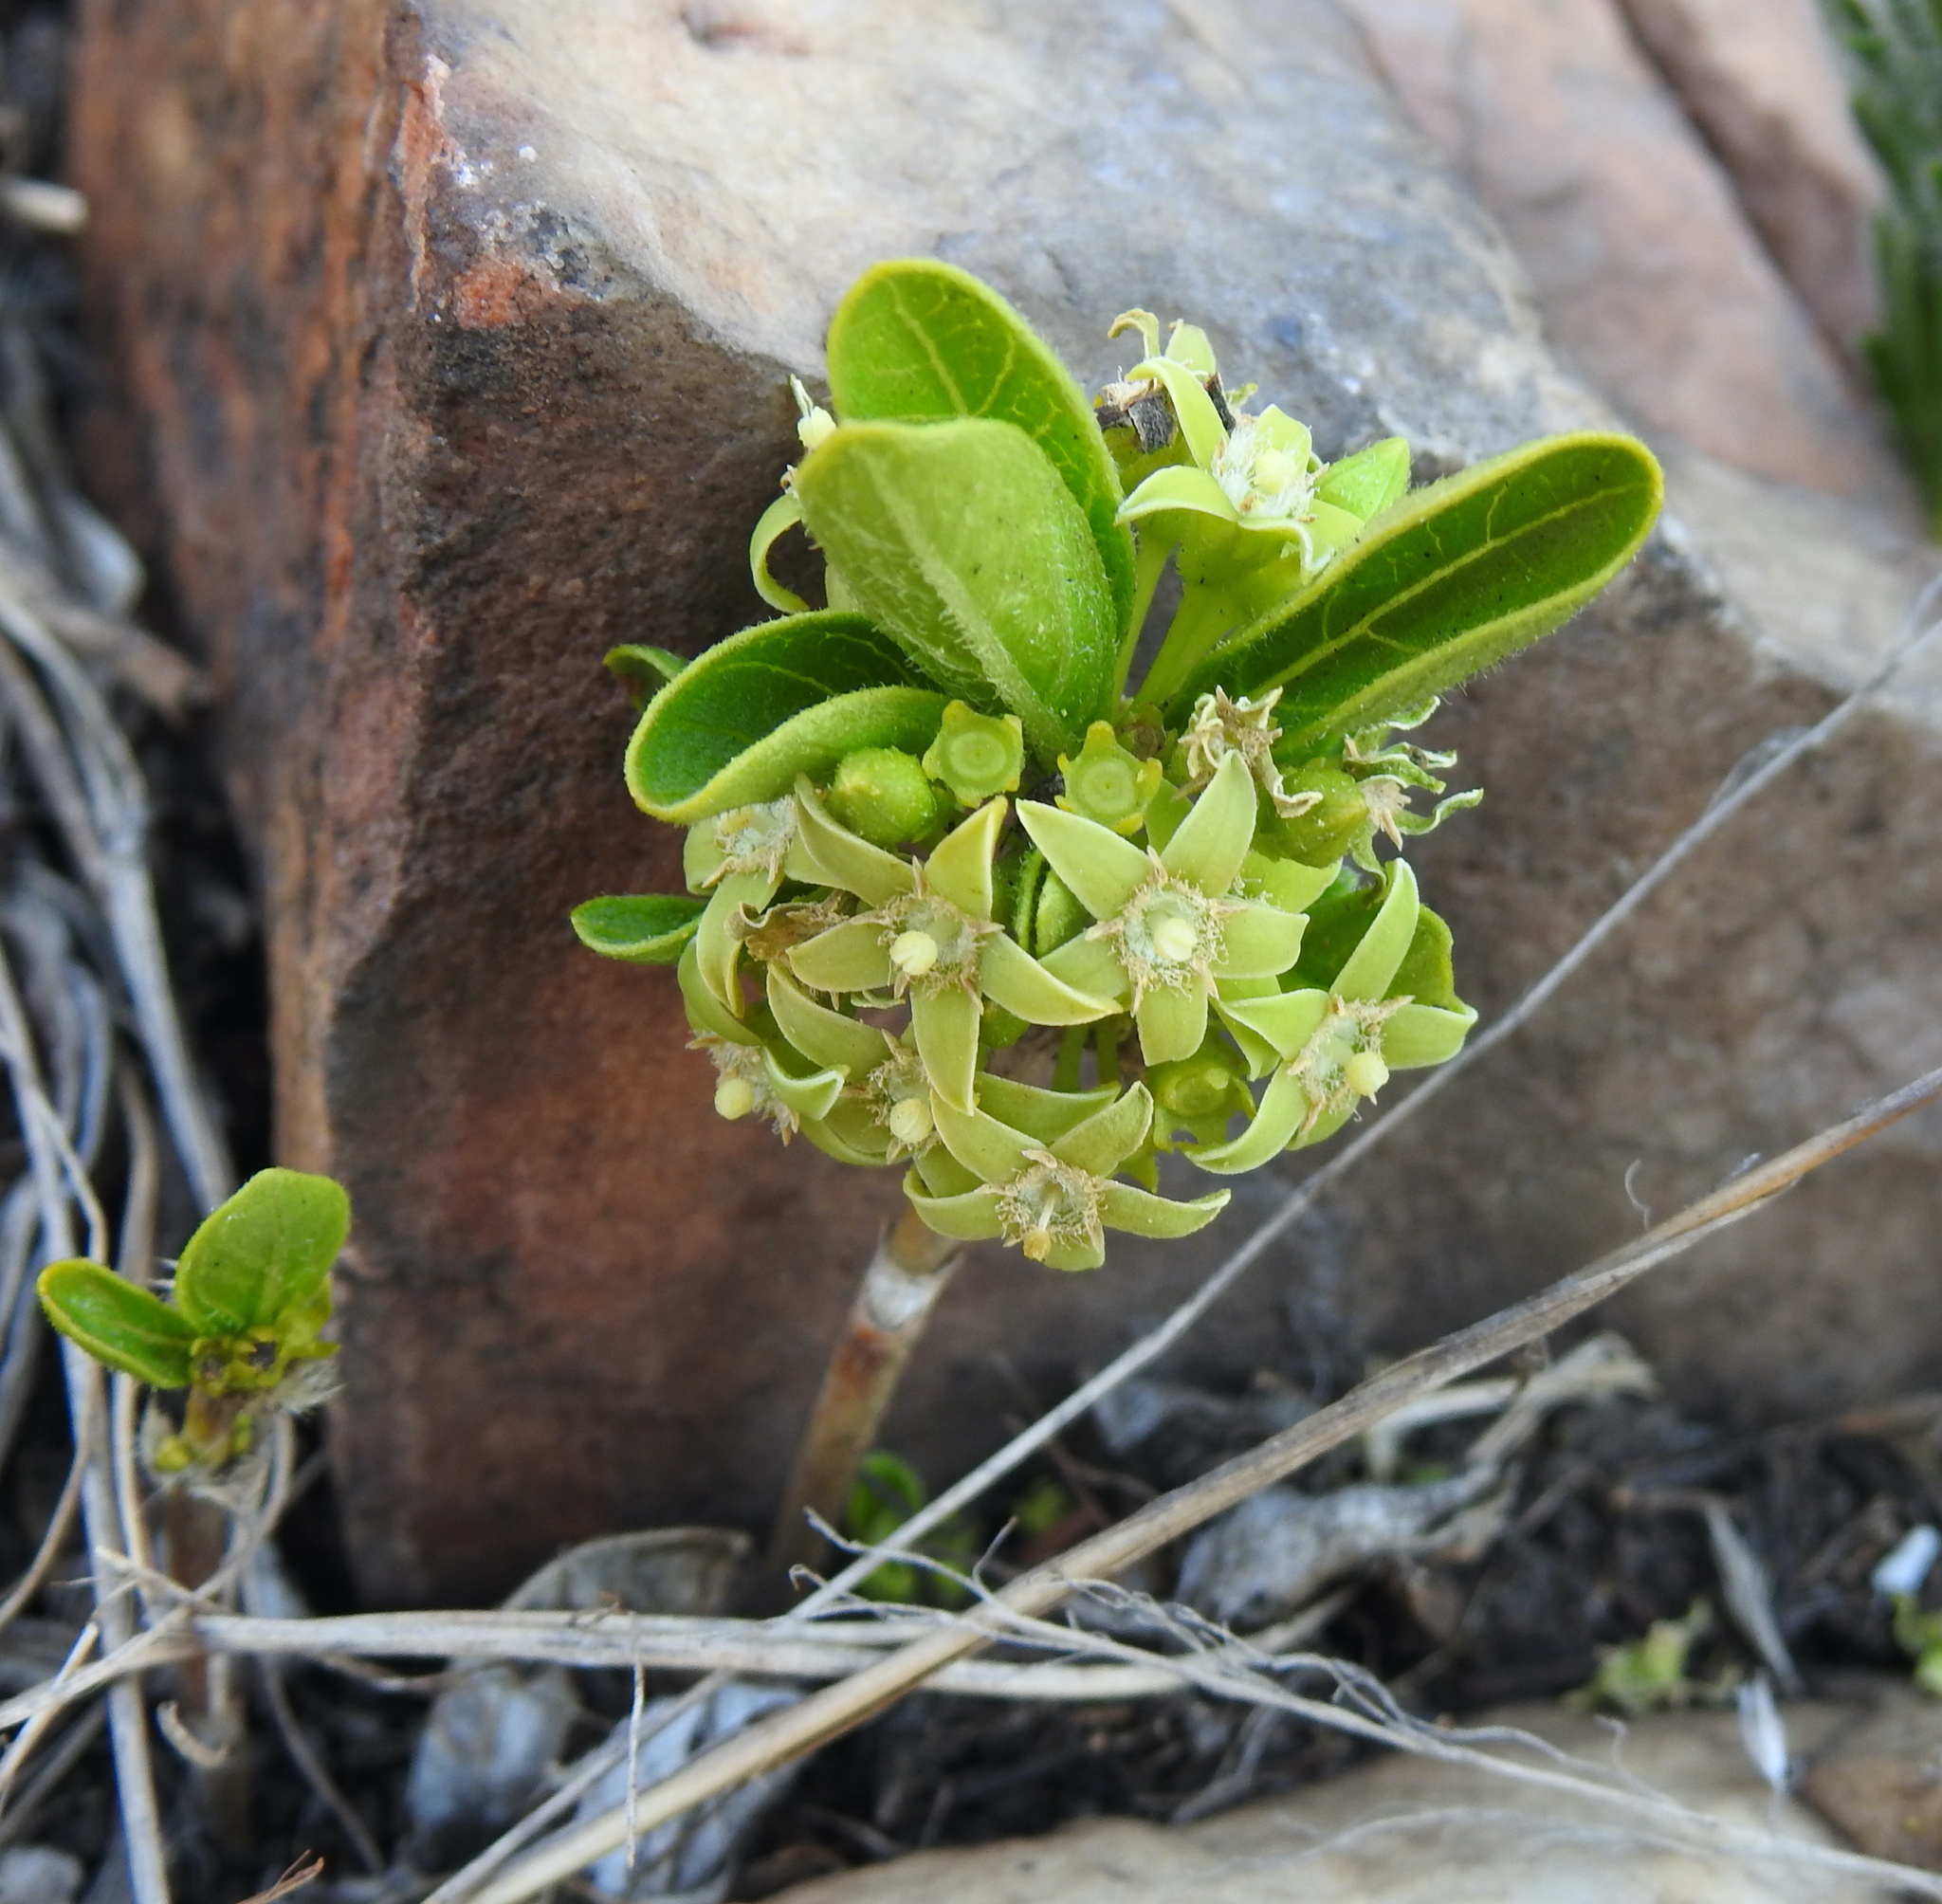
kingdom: Plantae
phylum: Tracheophyta
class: Magnoliopsida
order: Gentianales
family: Rubiaceae
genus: Bridsonia
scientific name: Bridsonia chamaedendrum
